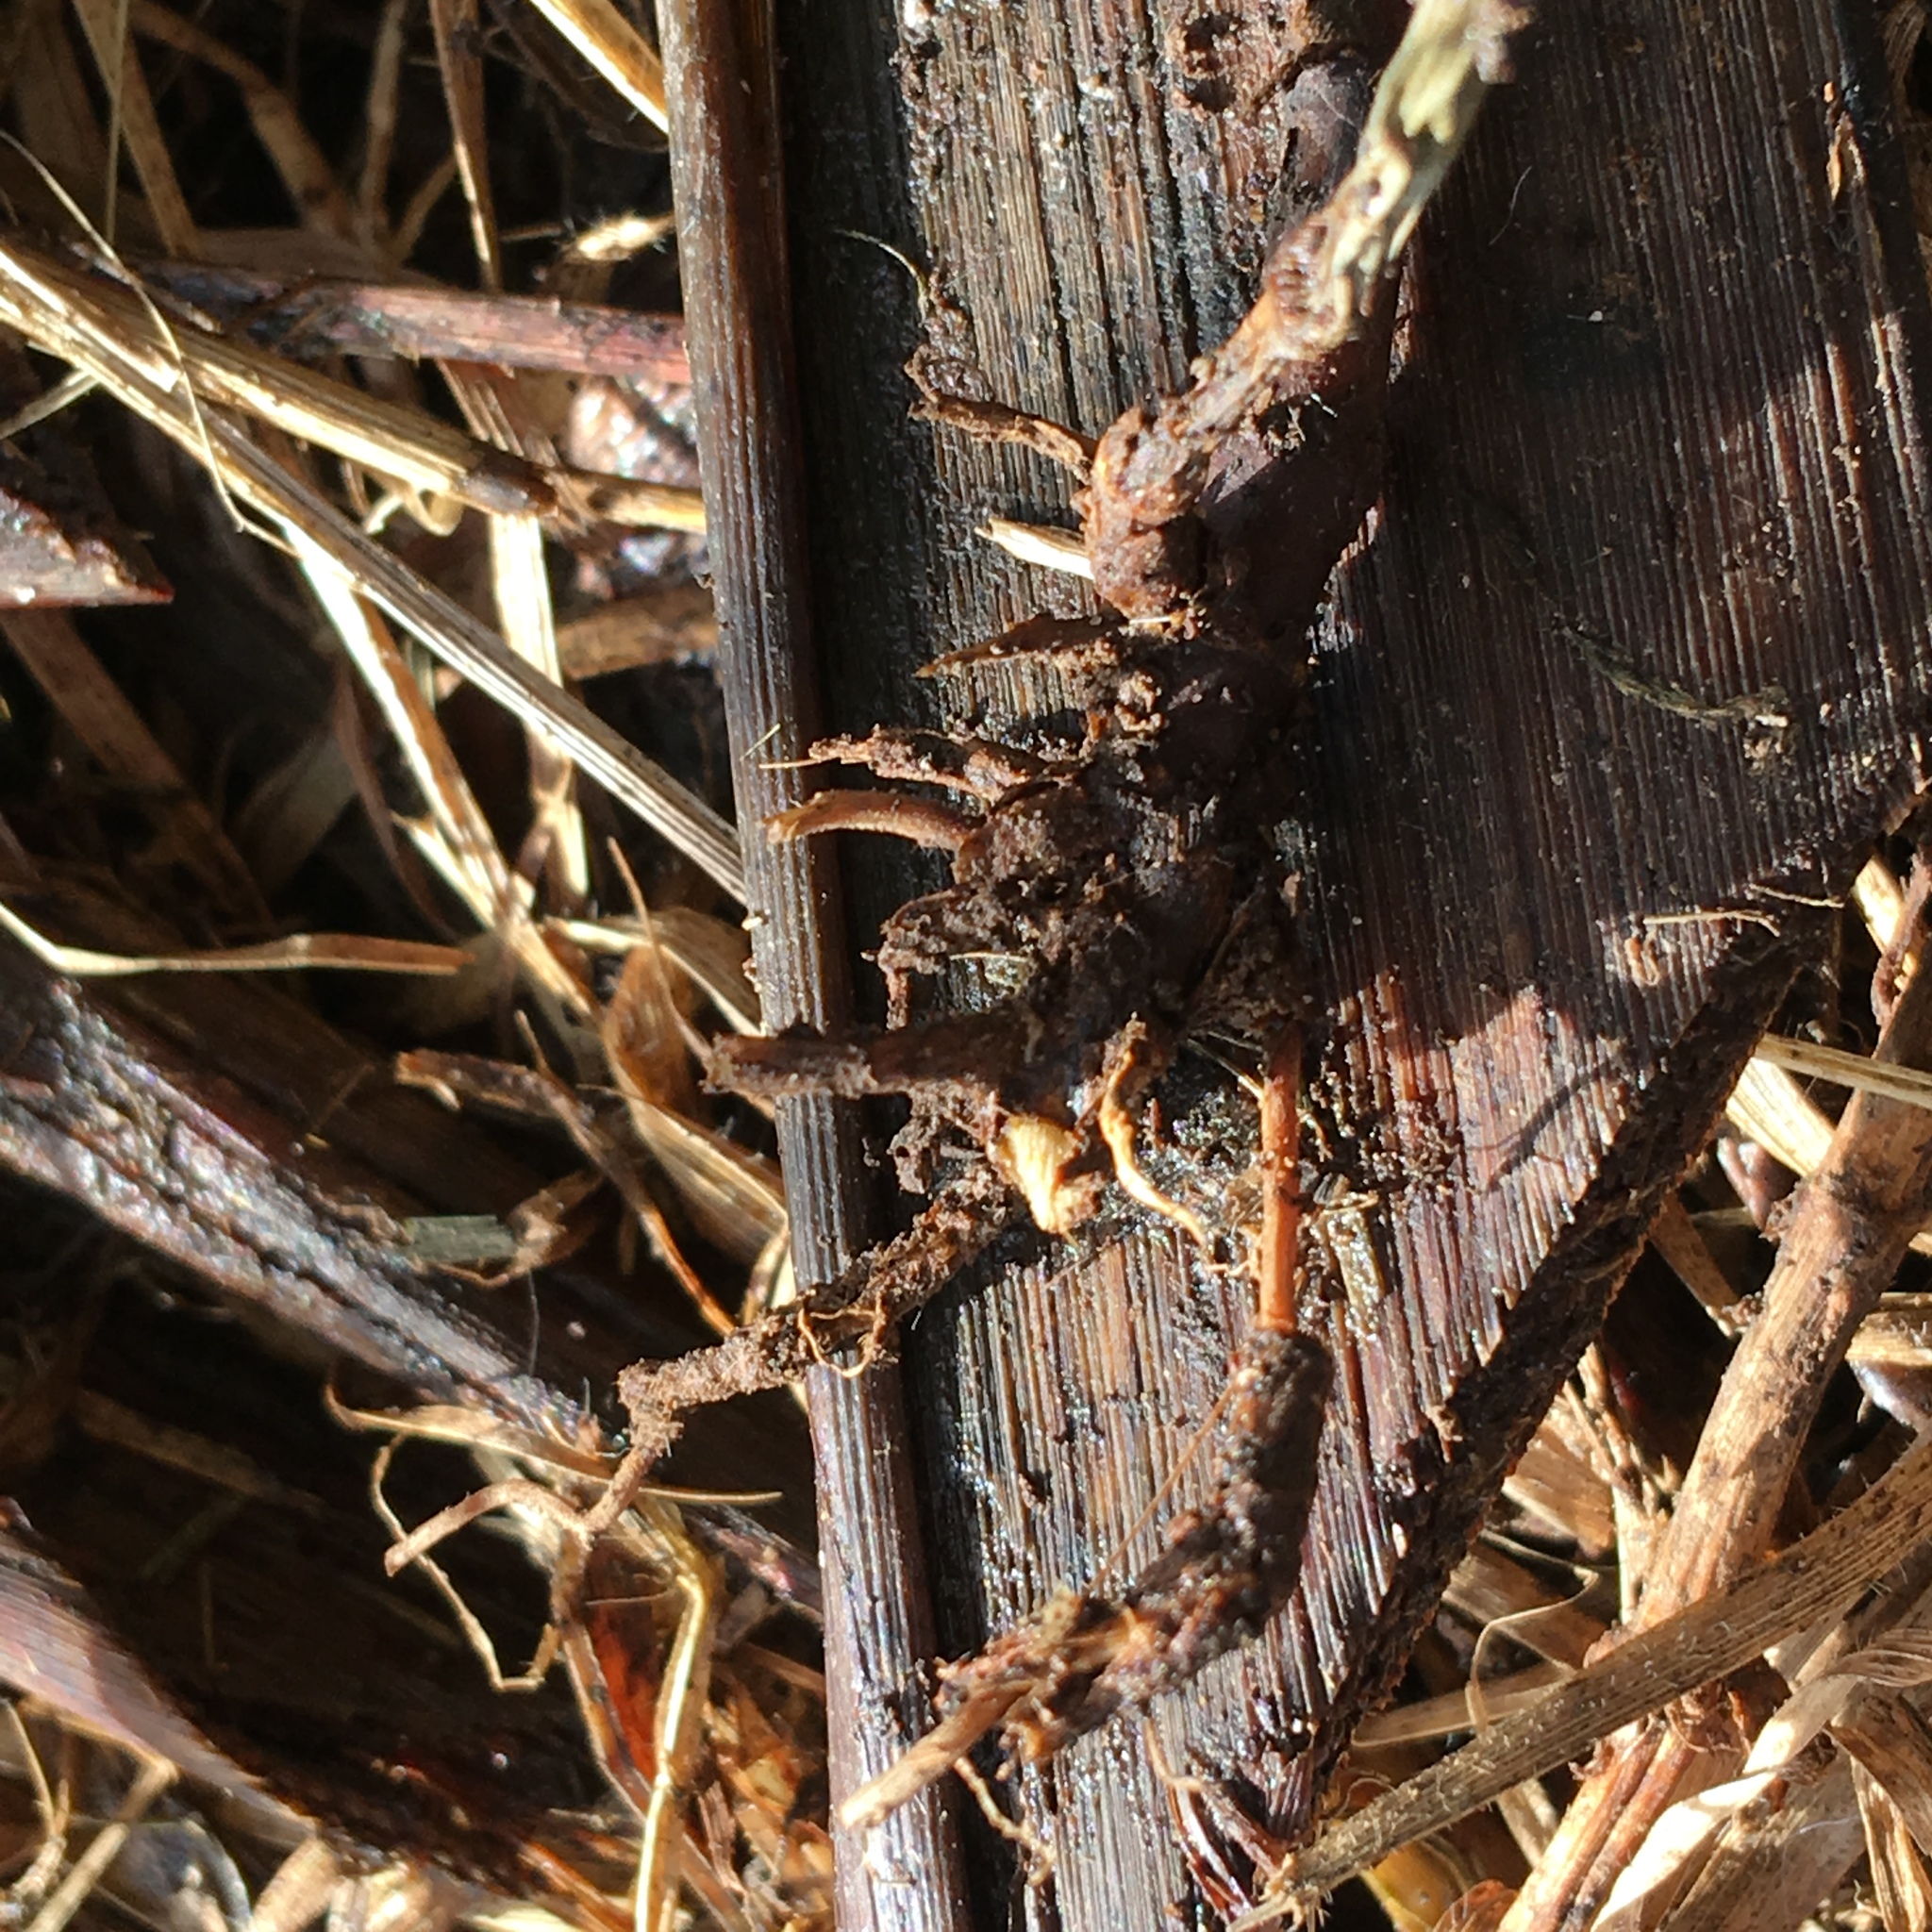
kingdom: Plantae
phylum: Tracheophyta
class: Liliopsida
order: Poales
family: Poaceae
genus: Cenchrus
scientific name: Cenchrus clandestinus
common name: Kikuyugrass
